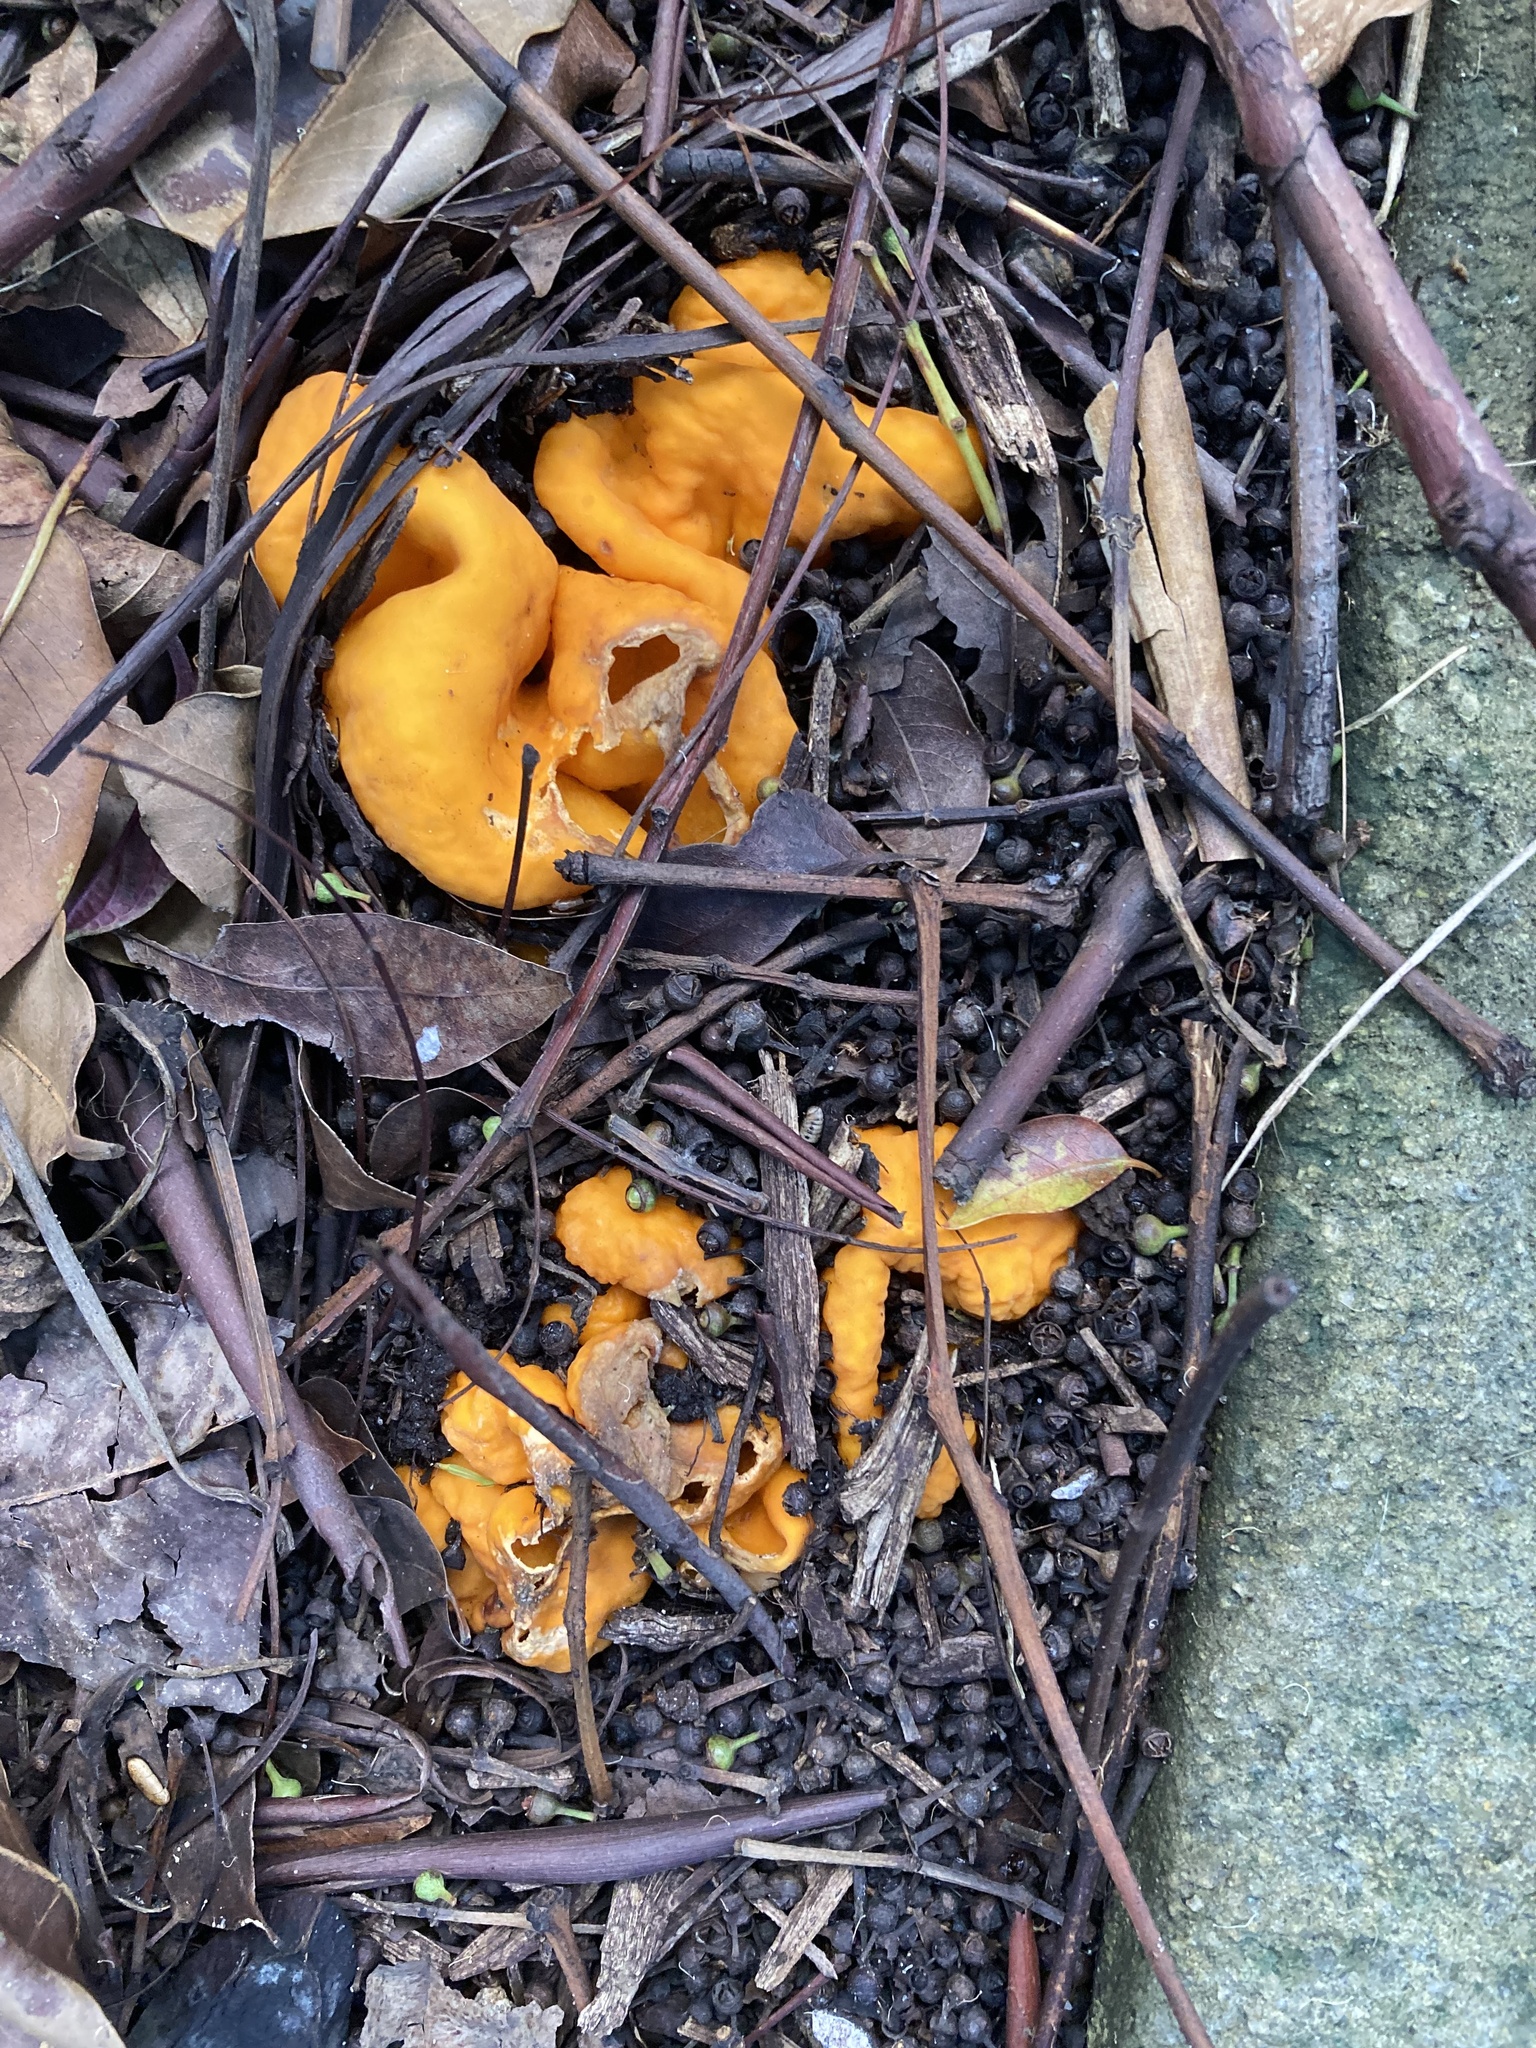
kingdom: Fungi
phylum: Ascomycota
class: Pezizomycetes
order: Pezizales
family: Glaziellaceae
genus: Glaziella
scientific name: Glaziella aurantiaca
